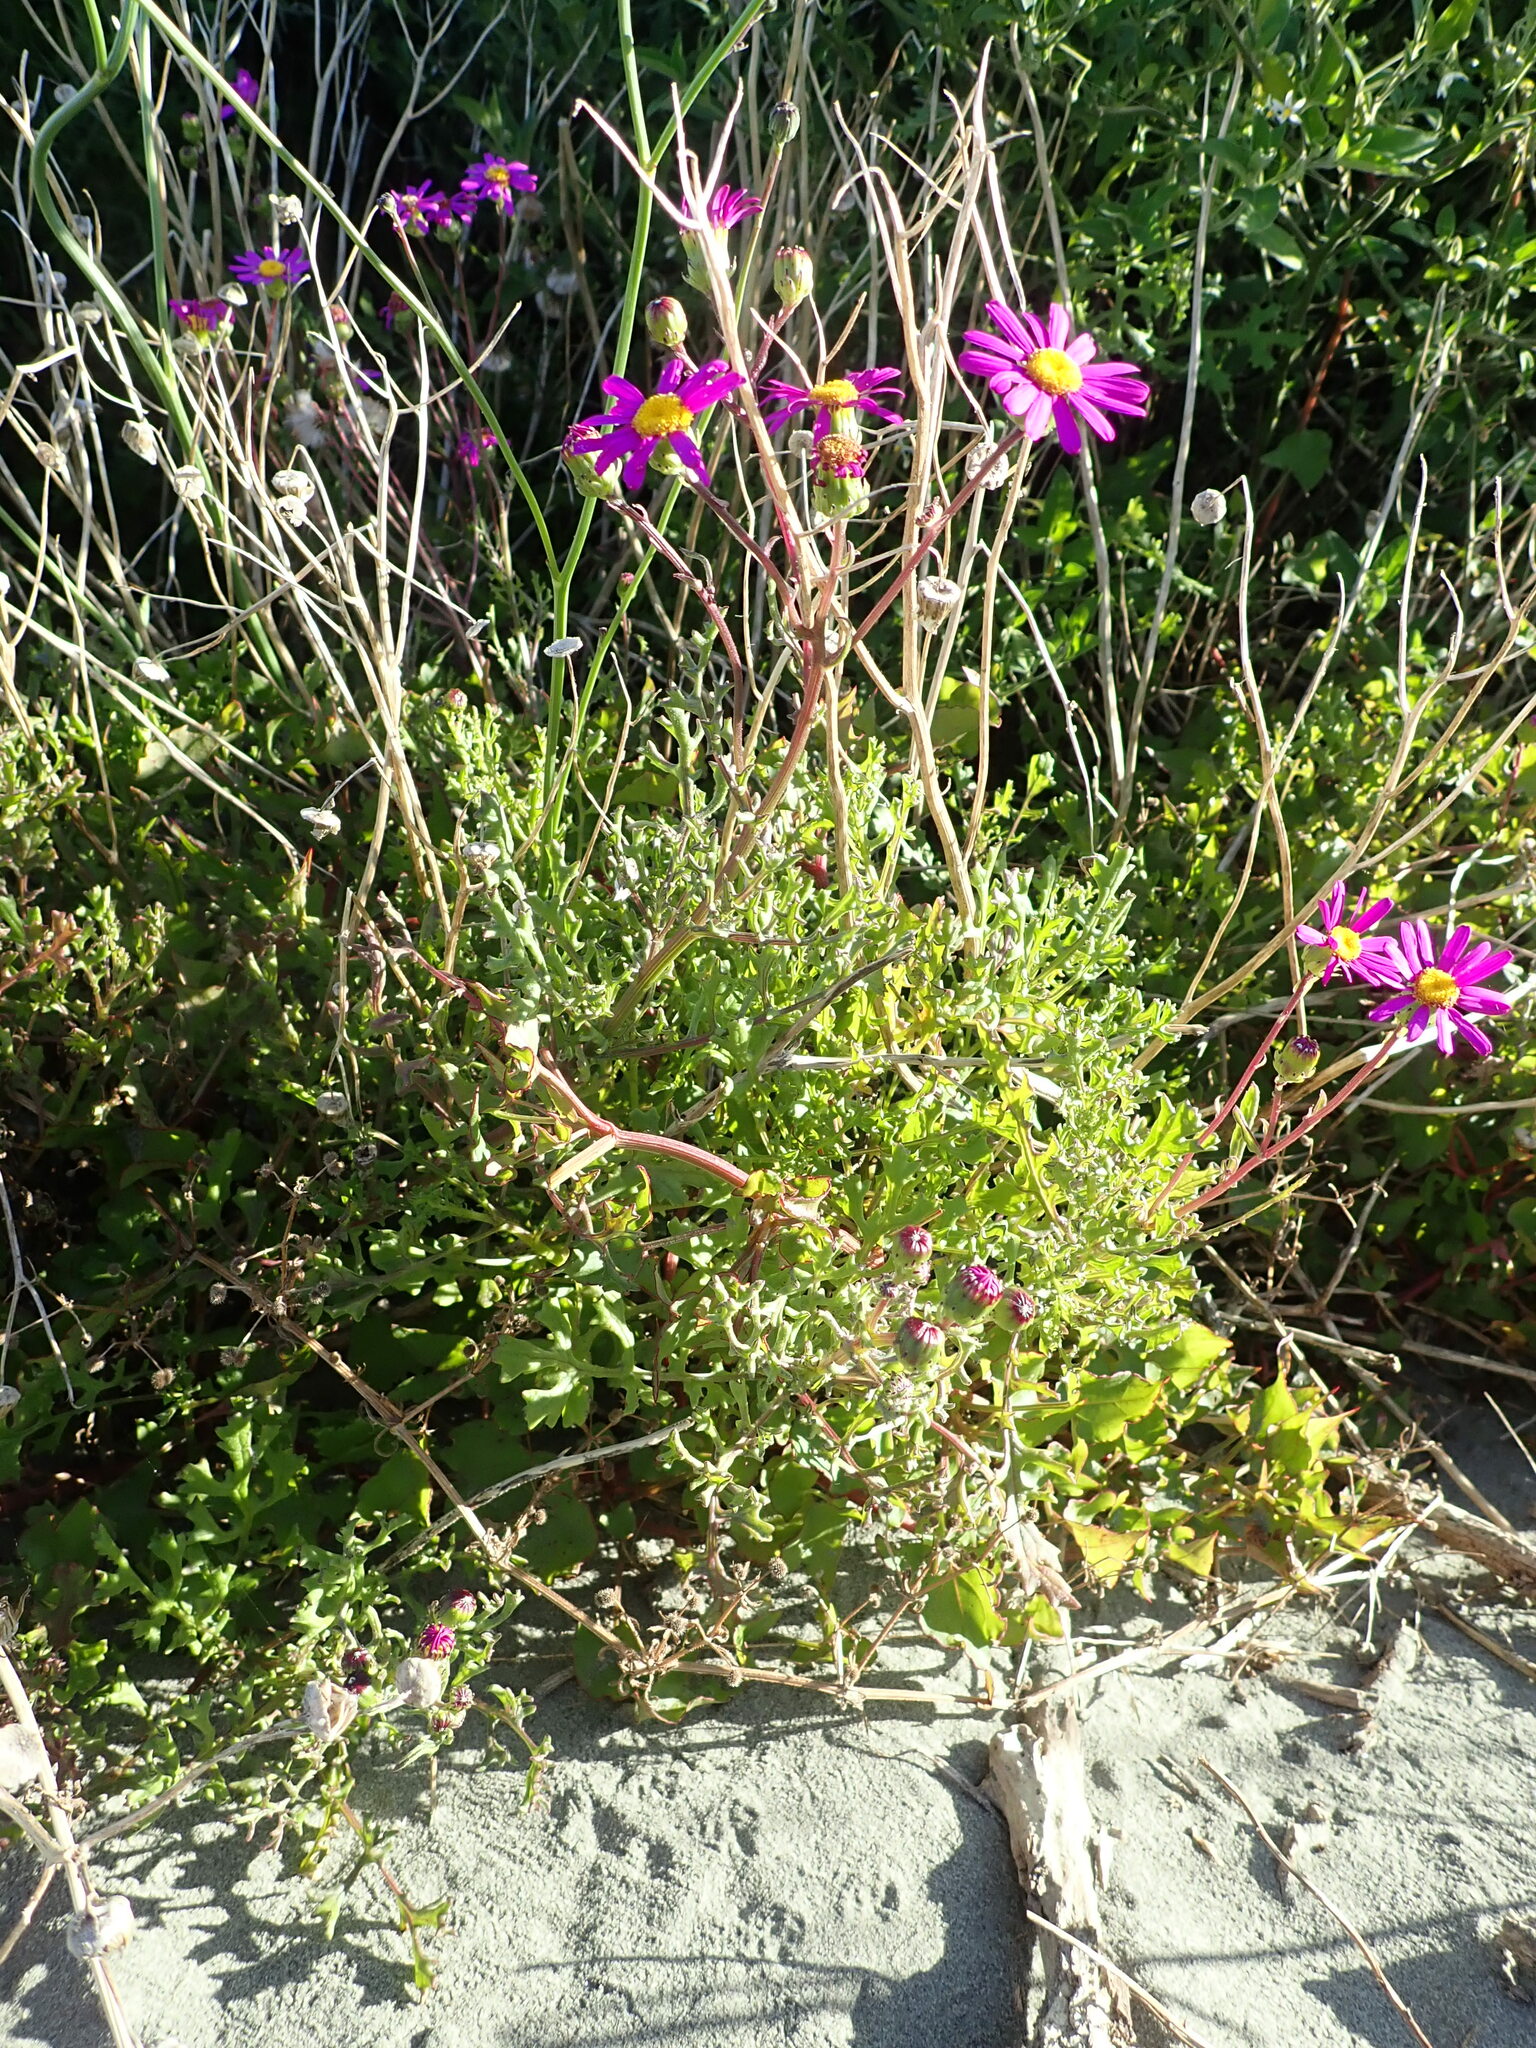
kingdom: Plantae
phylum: Tracheophyta
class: Magnoliopsida
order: Asterales
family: Asteraceae
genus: Senecio
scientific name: Senecio elegans
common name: Purple groundsel
